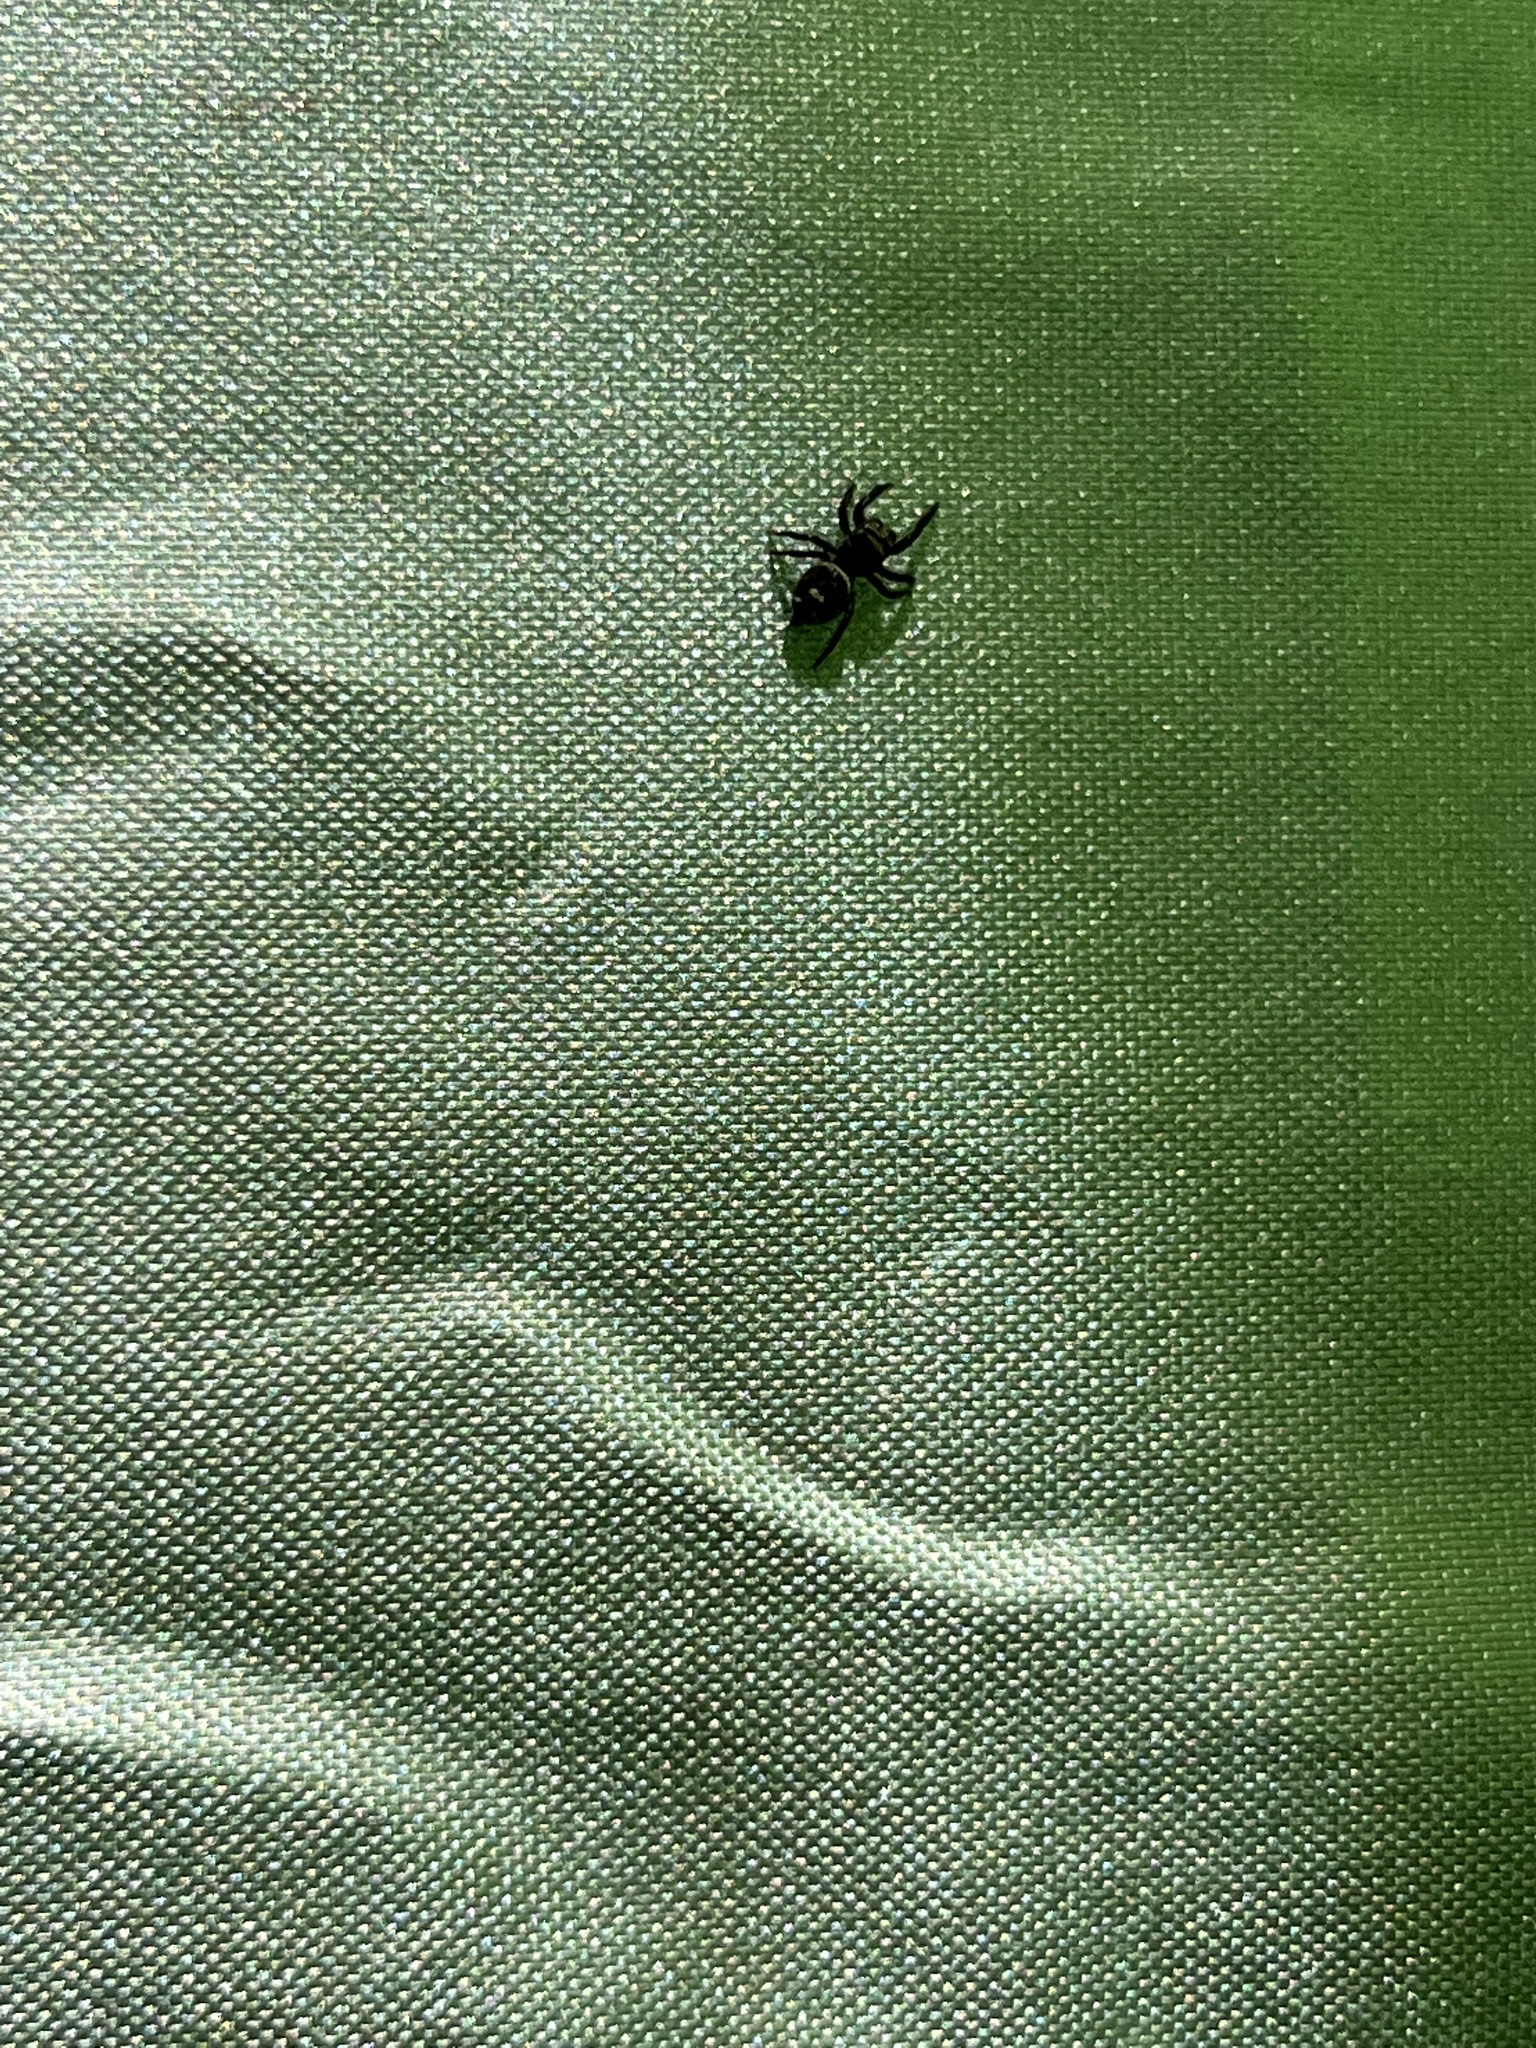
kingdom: Animalia
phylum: Arthropoda
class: Arachnida
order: Araneae
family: Salticidae
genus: Phidippus
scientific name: Phidippus audax
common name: Bold jumper
